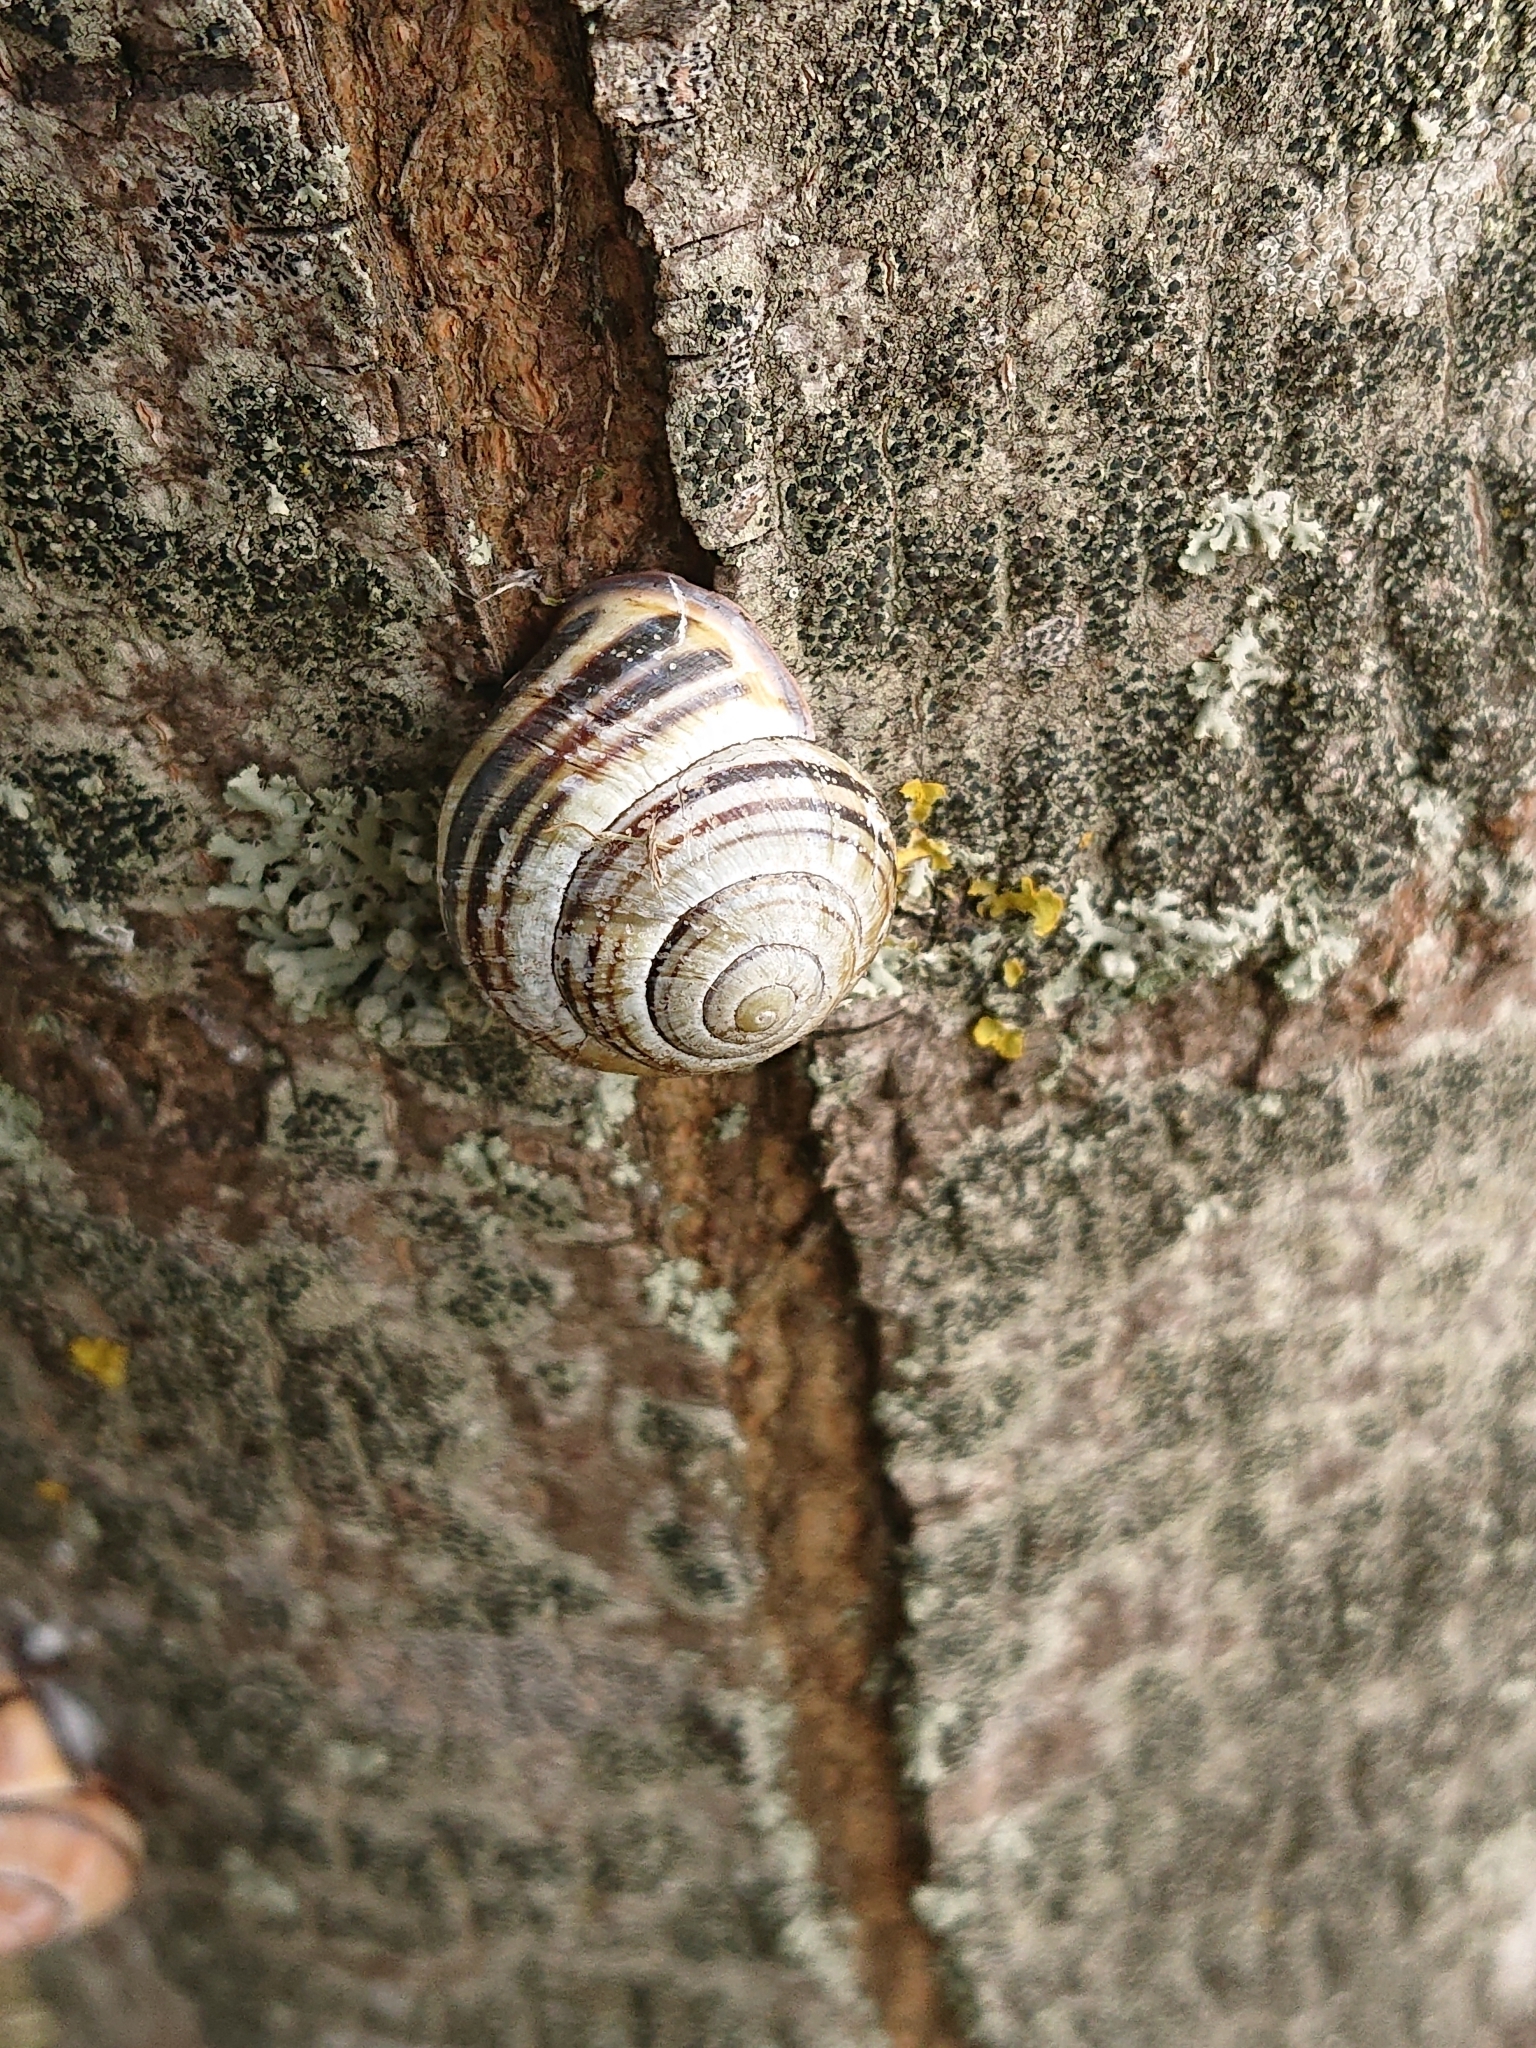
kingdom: Animalia
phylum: Mollusca
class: Gastropoda
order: Stylommatophora
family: Helicidae
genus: Cepaea
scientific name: Cepaea nemoralis
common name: Grovesnail
